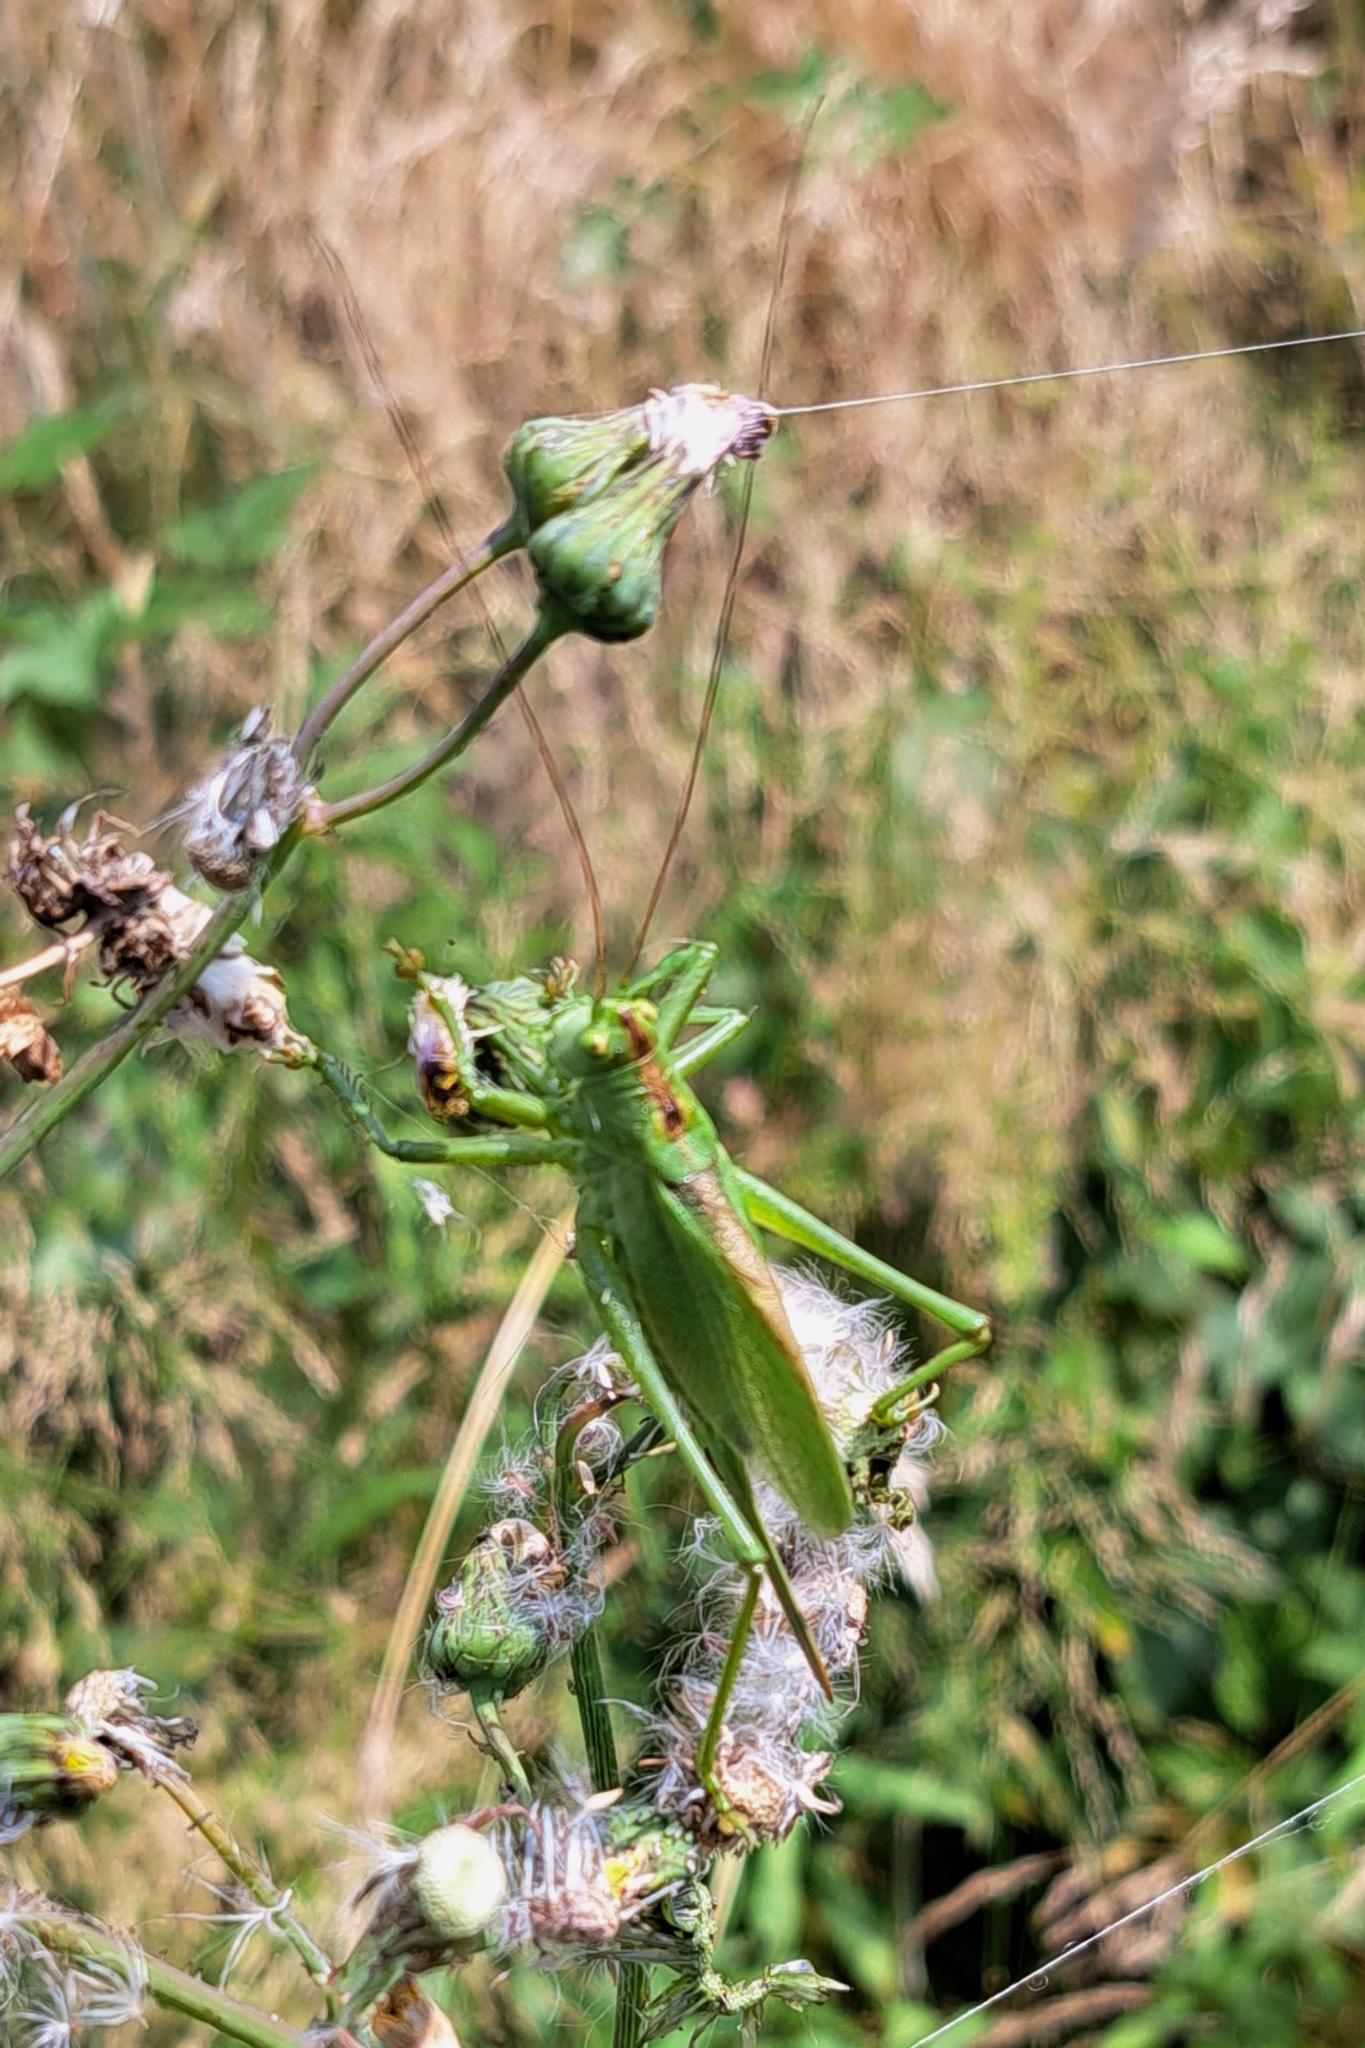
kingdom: Animalia
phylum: Arthropoda
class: Insecta
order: Orthoptera
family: Tettigoniidae
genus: Tettigonia
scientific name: Tettigonia cantans
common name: Upland green bush-cricket
